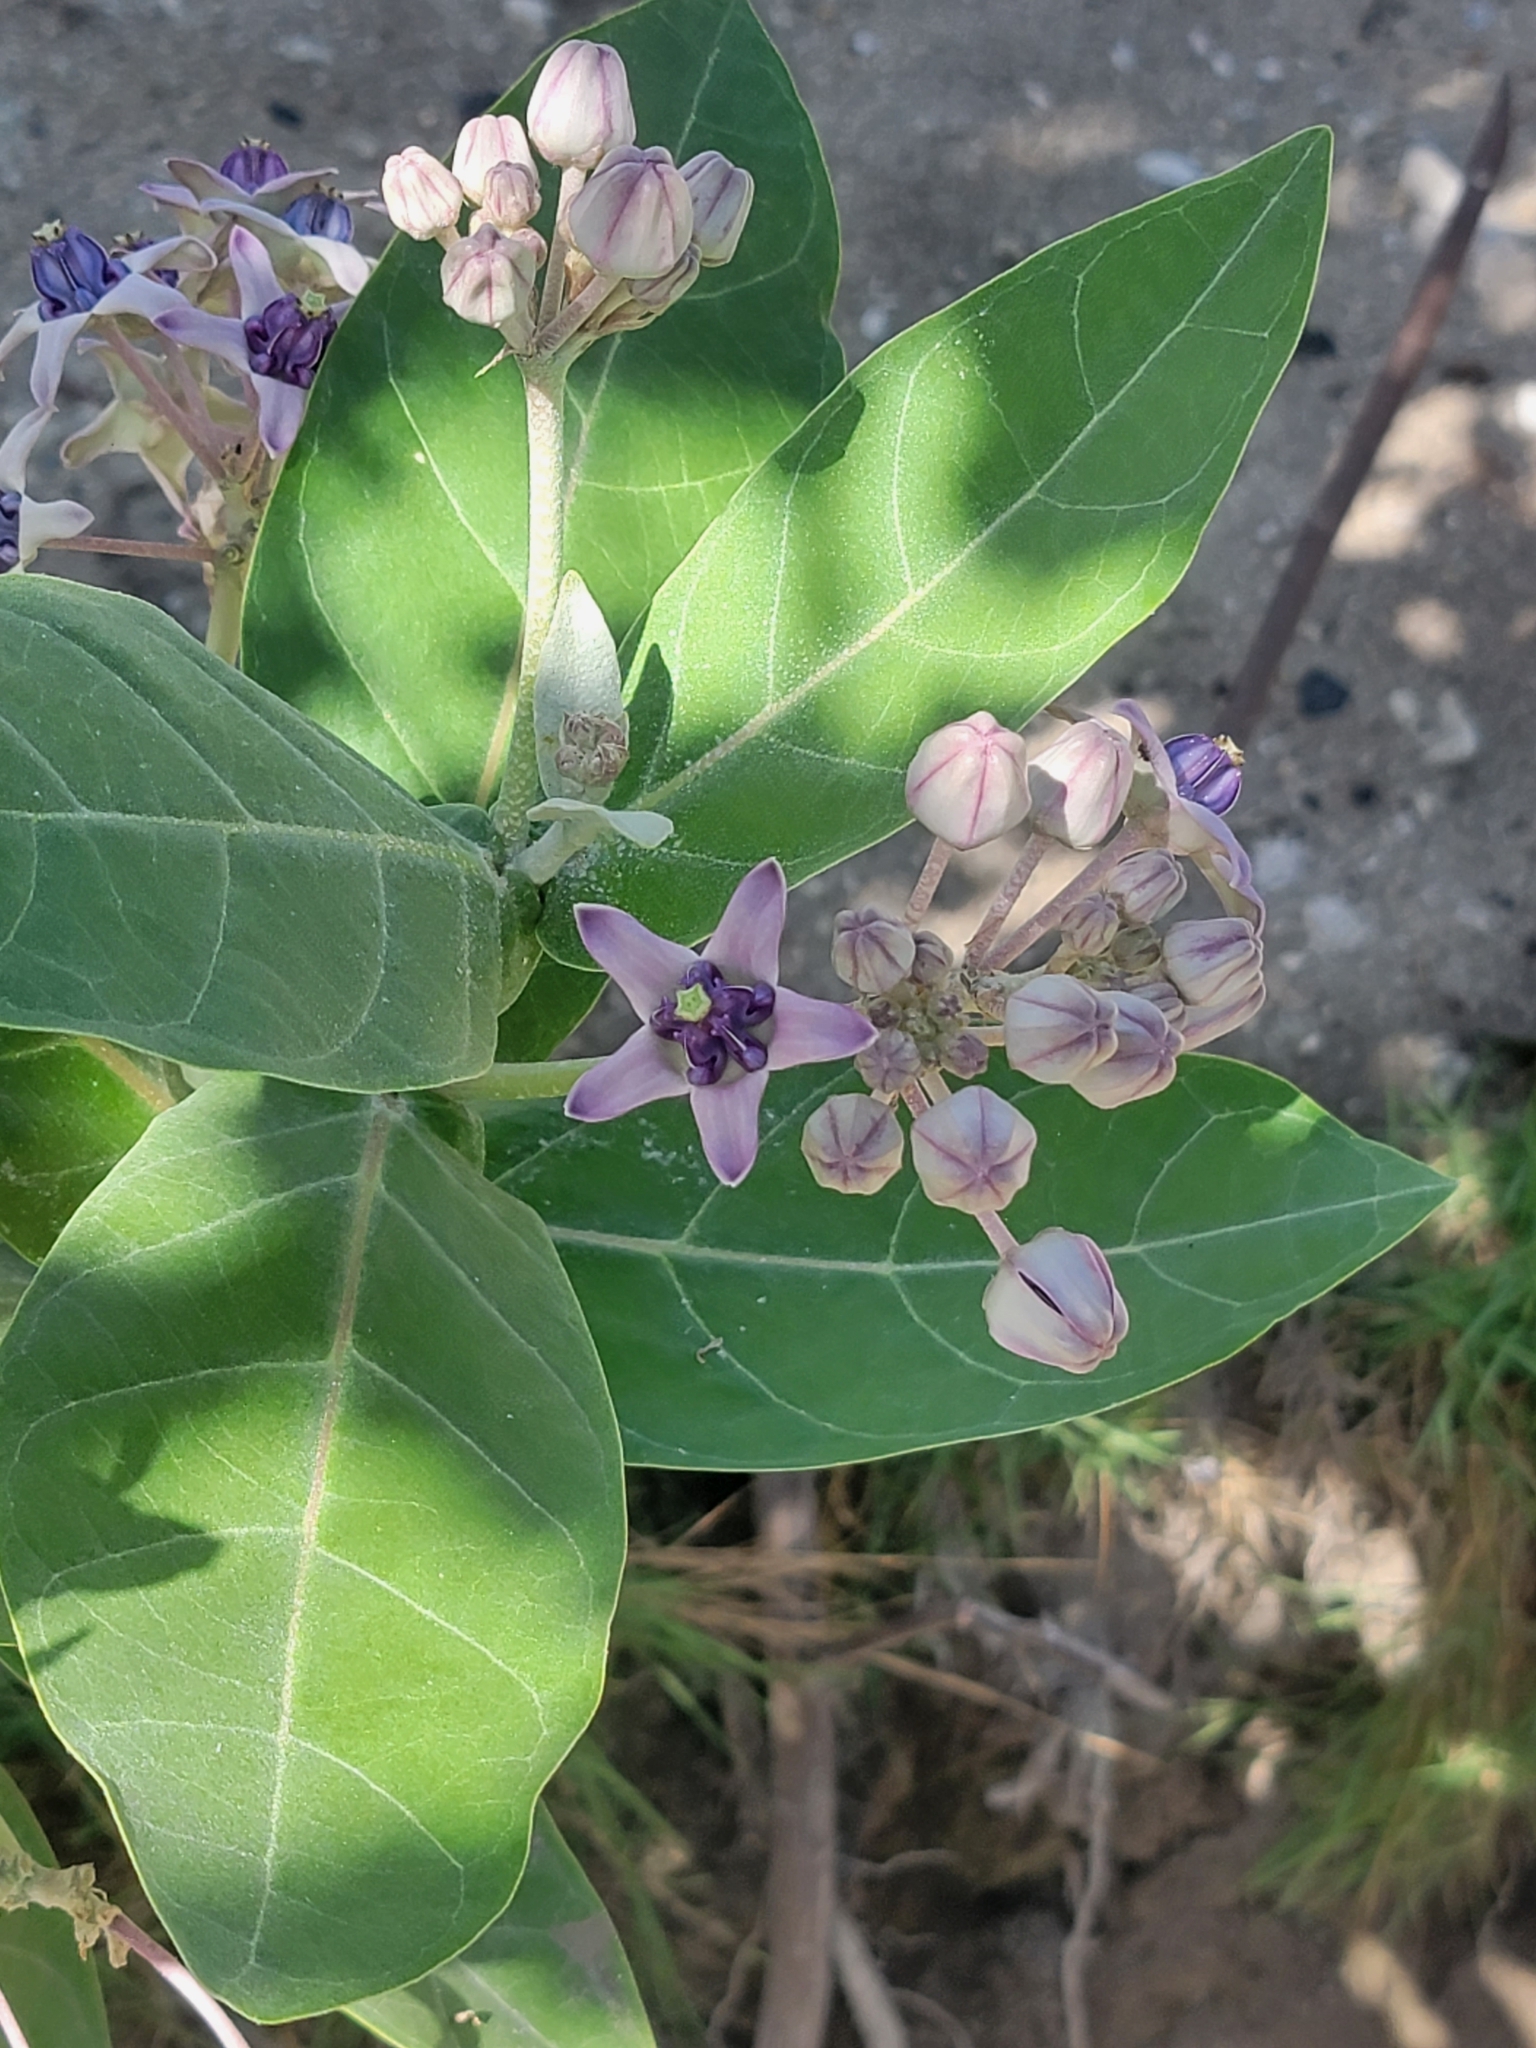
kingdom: Plantae
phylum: Tracheophyta
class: Magnoliopsida
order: Gentianales
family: Apocynaceae
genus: Calotropis
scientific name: Calotropis gigantea
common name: Crown flower
